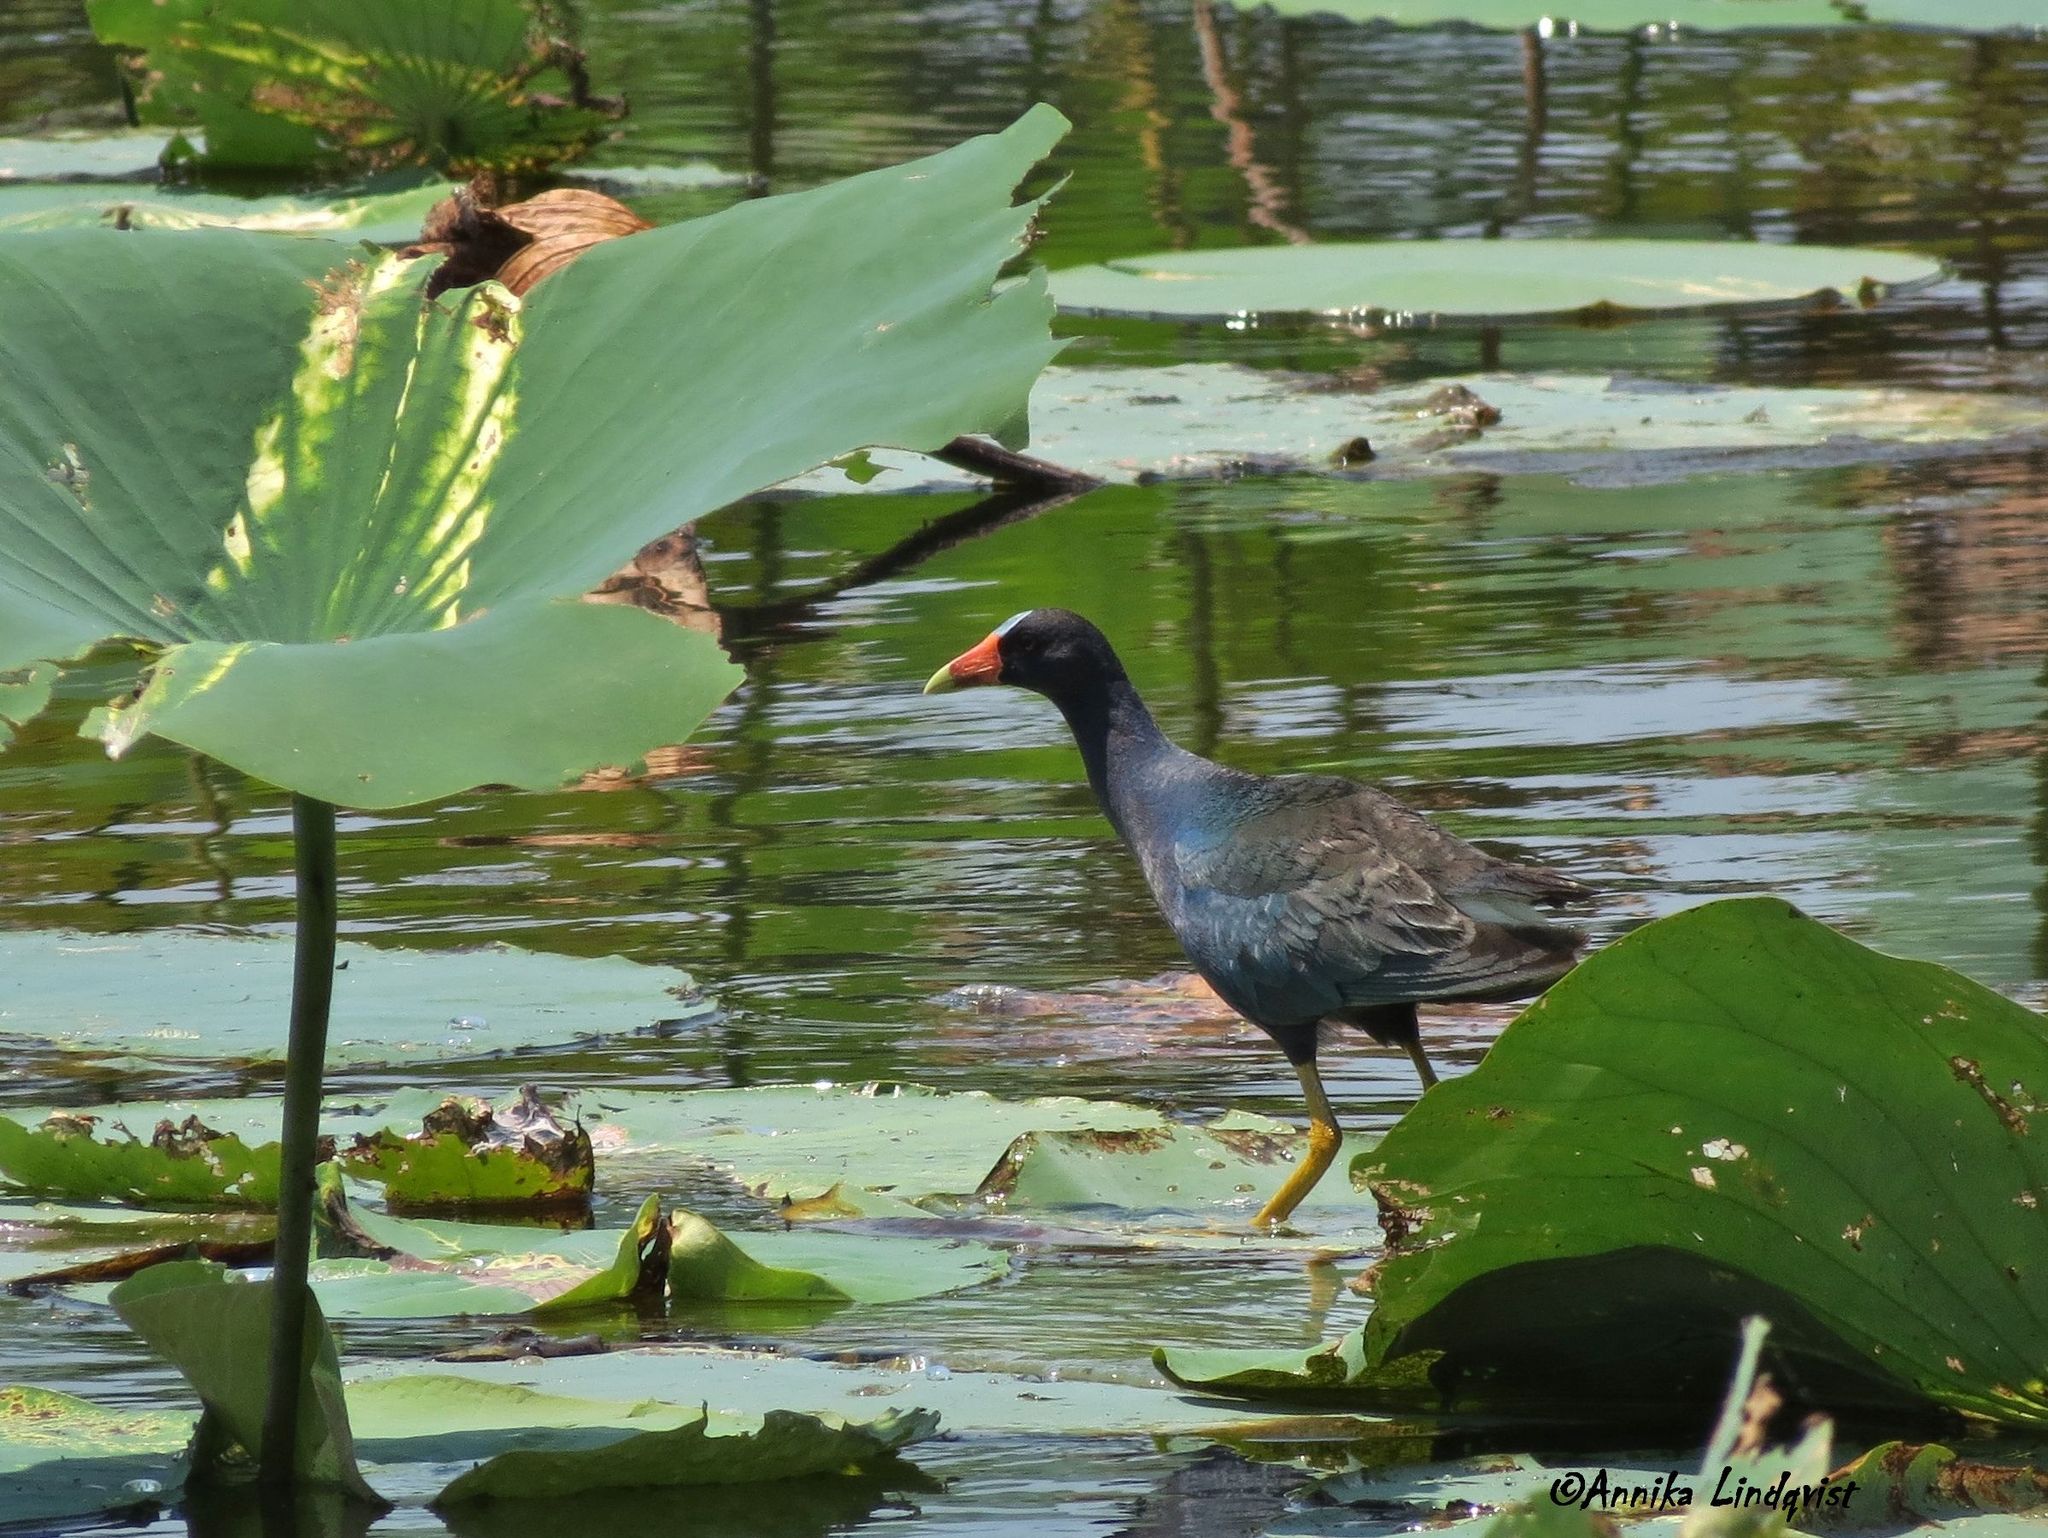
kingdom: Animalia
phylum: Chordata
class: Aves
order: Gruiformes
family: Rallidae
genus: Porphyrio
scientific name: Porphyrio martinica
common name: Purple gallinule
